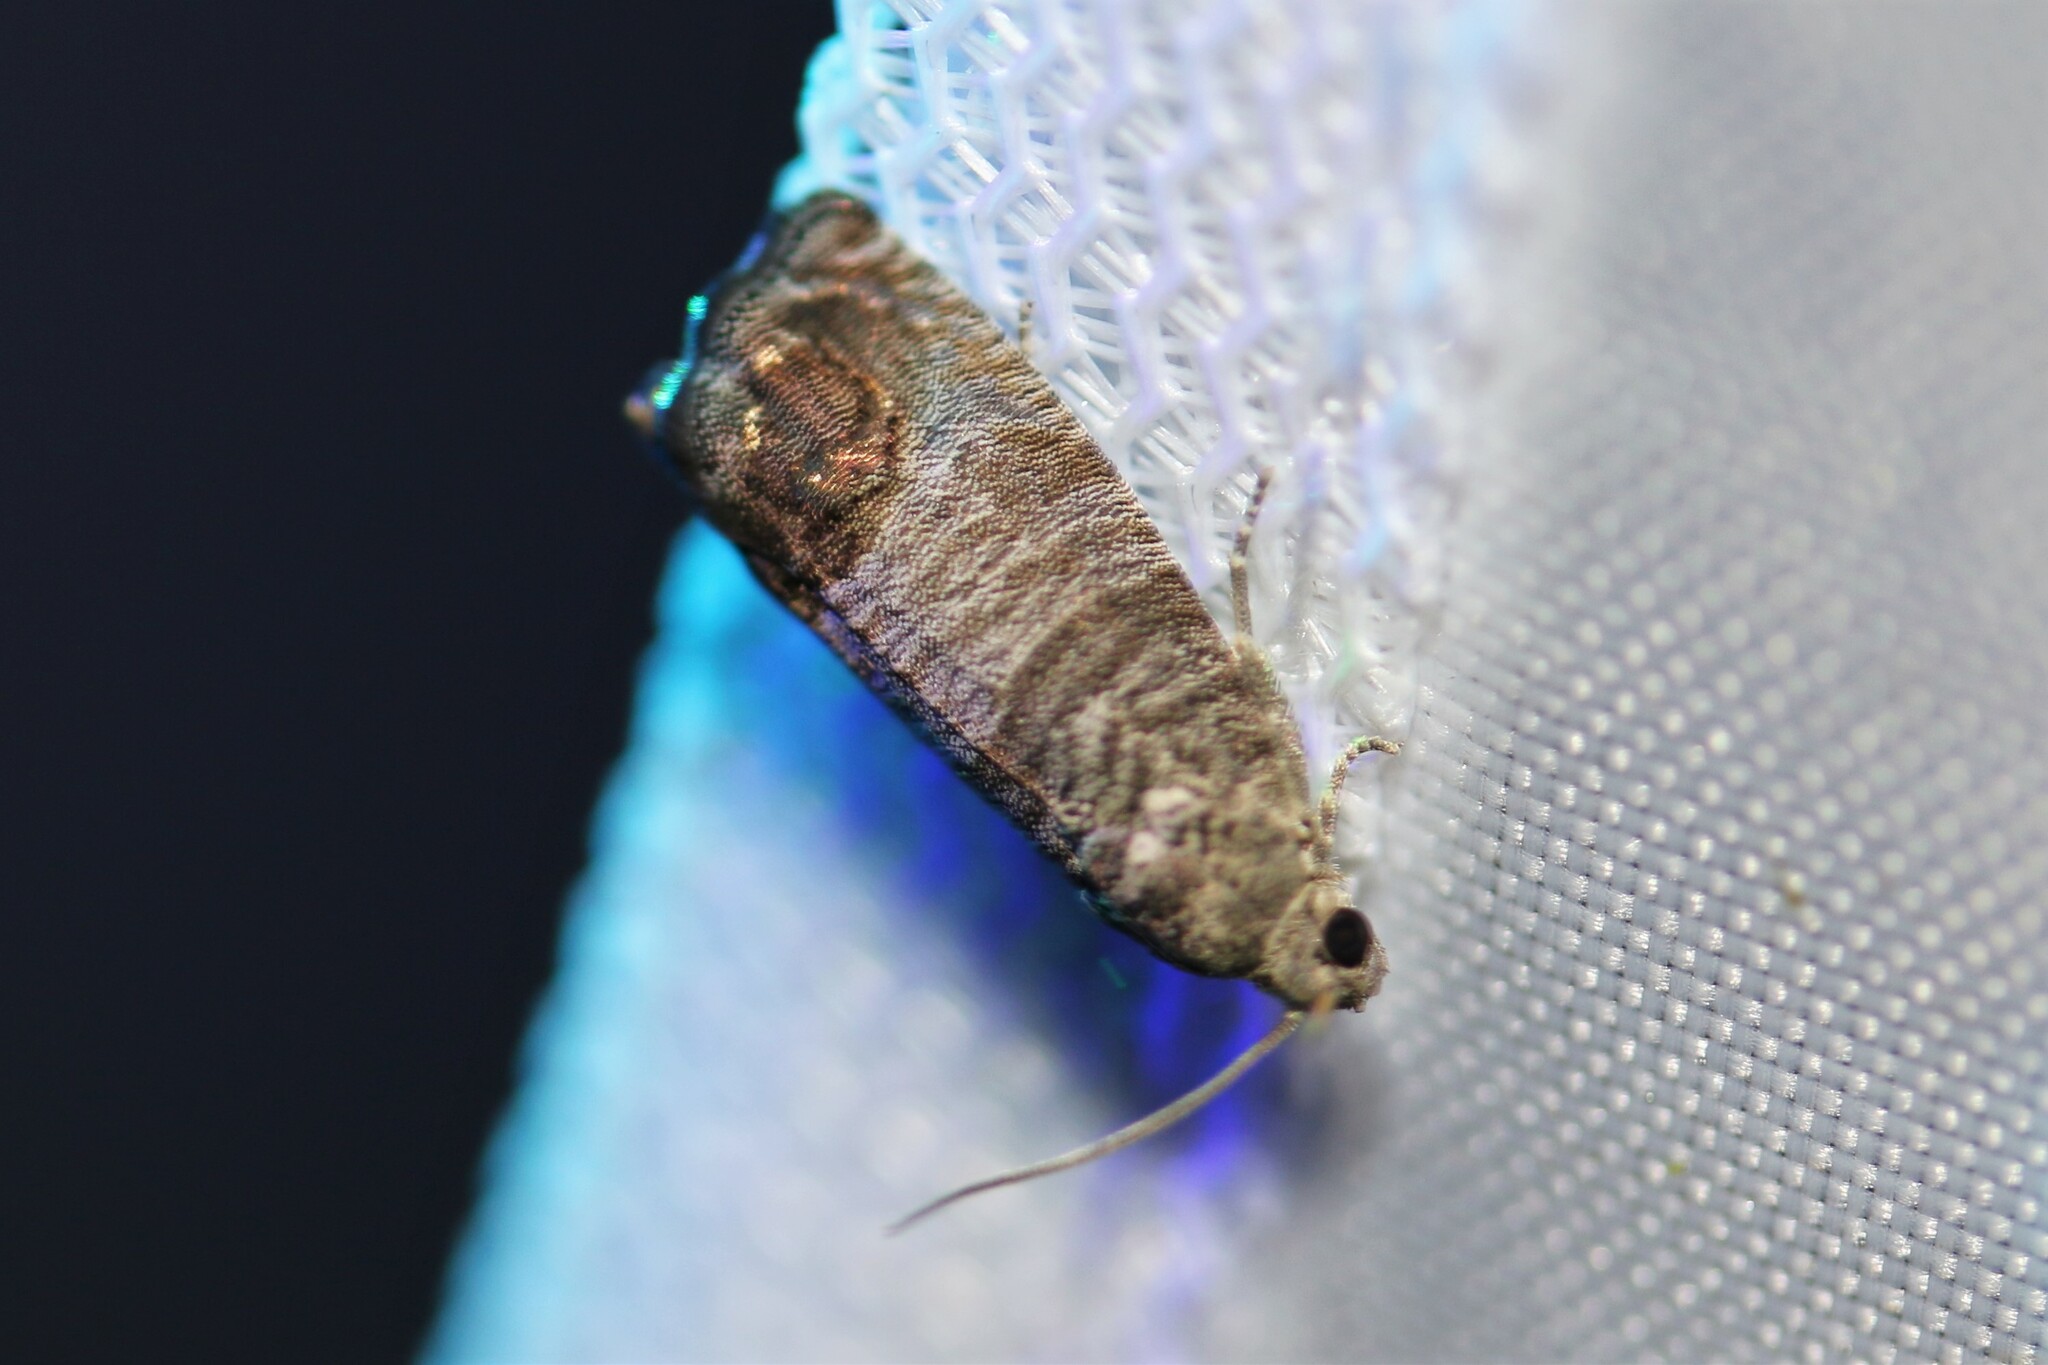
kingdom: Animalia
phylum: Arthropoda
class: Insecta
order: Lepidoptera
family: Tortricidae
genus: Cydia
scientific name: Cydia pomonella
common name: Codling moth
